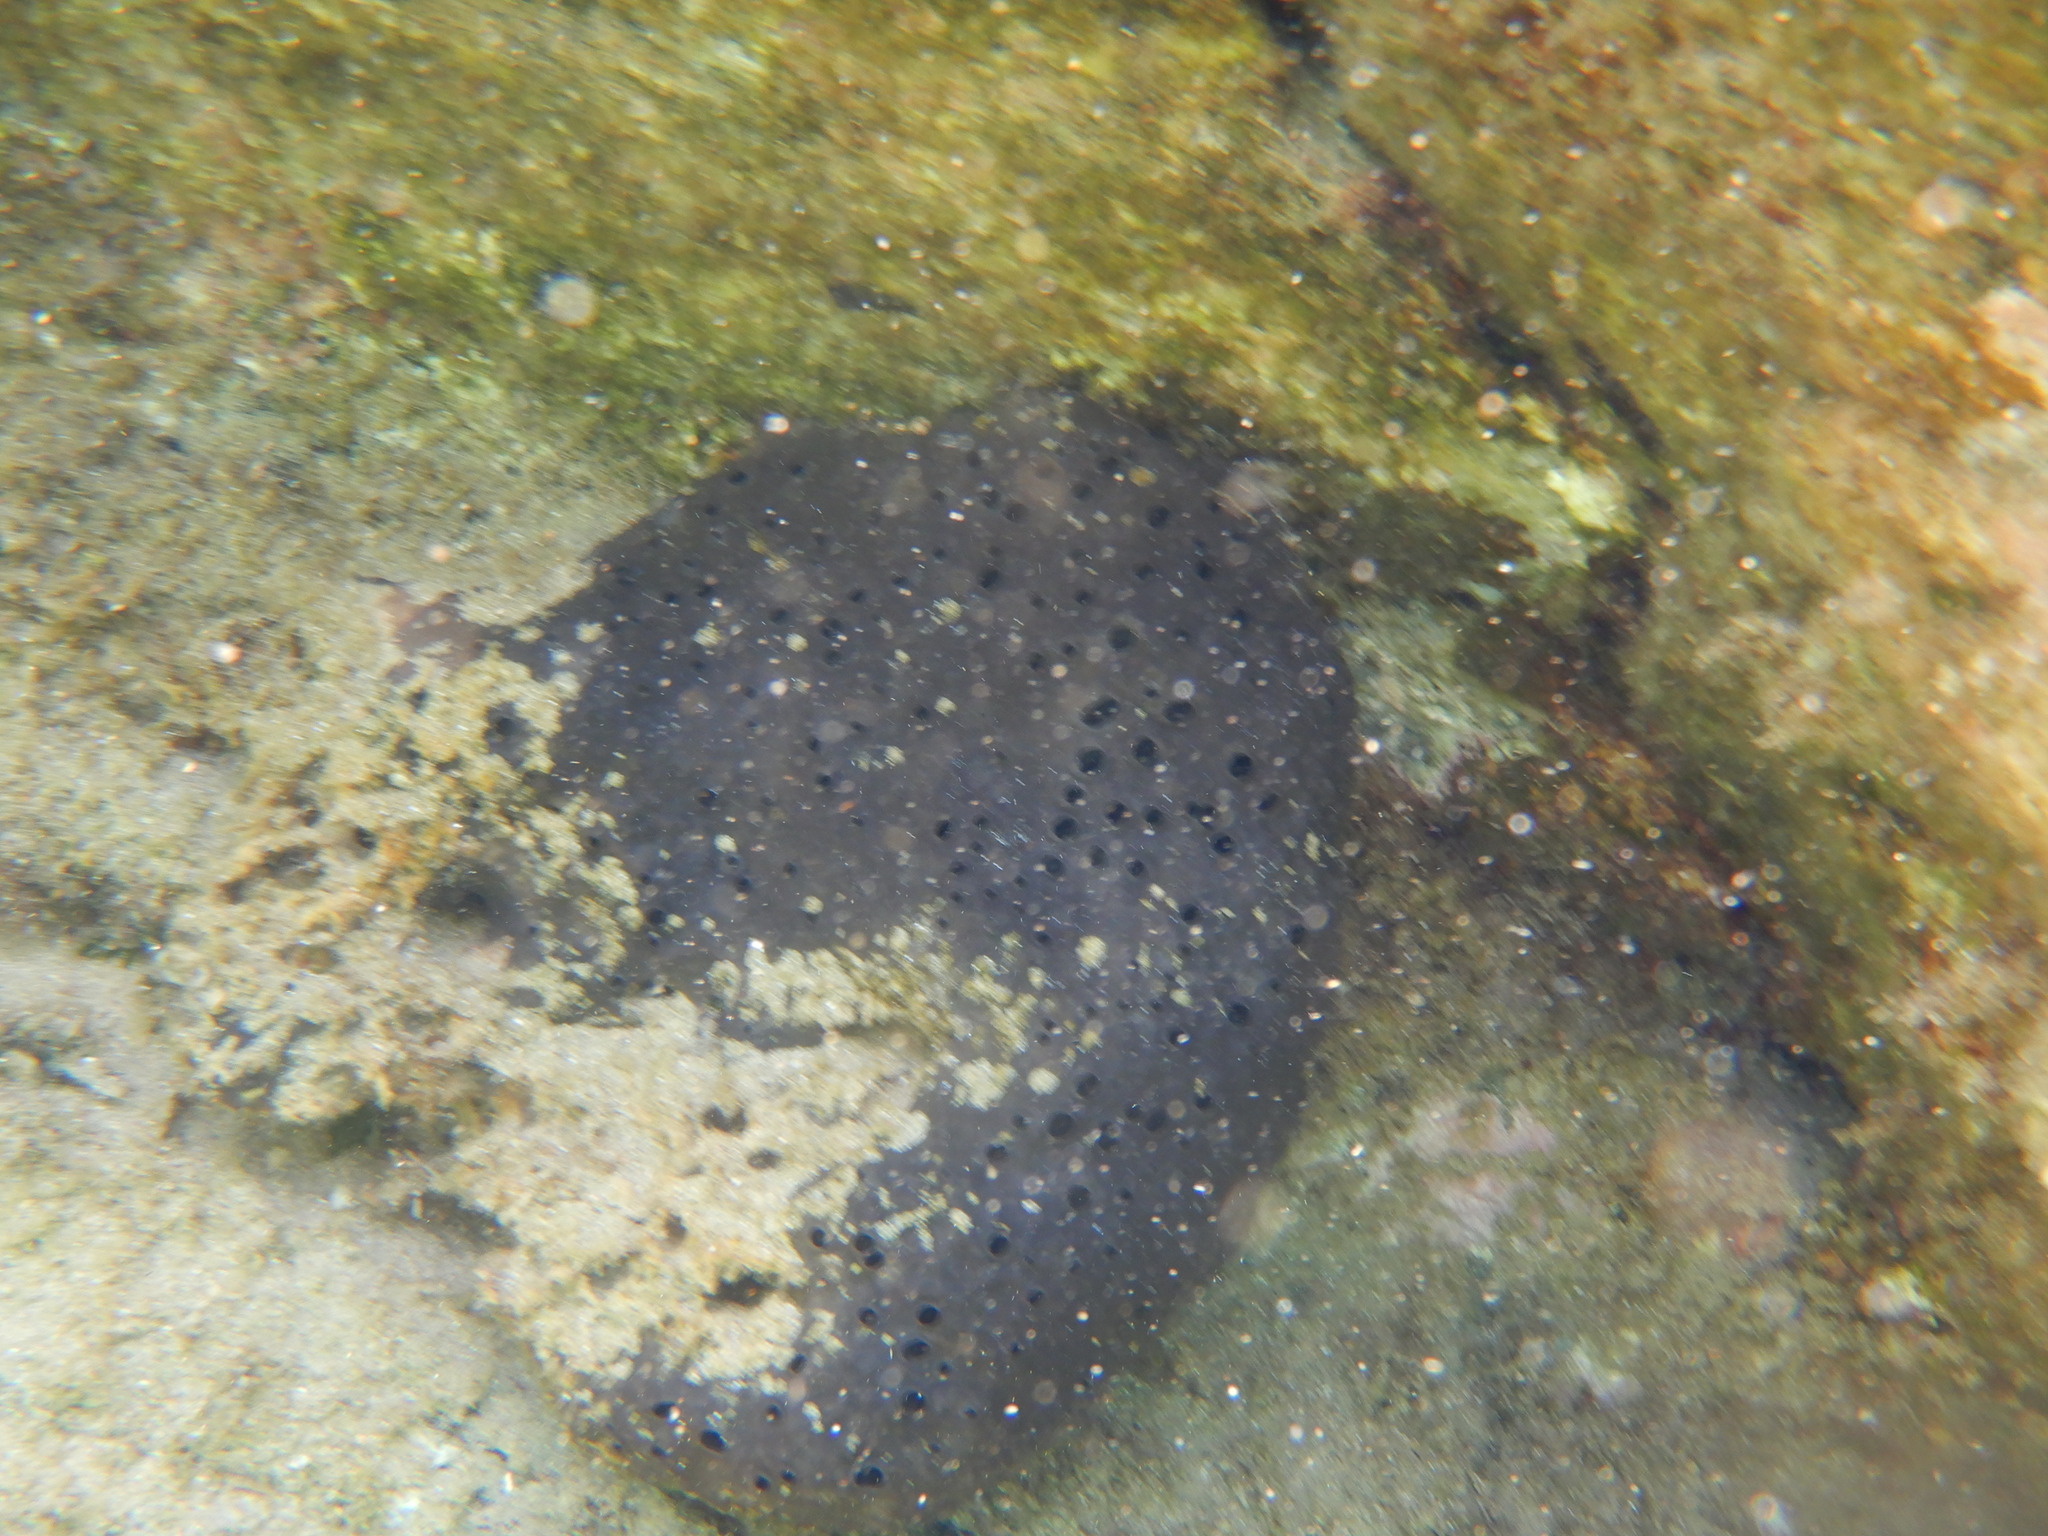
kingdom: Animalia
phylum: Porifera
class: Demospongiae
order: Dictyoceratida
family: Irciniidae
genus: Sarcotragus
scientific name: Sarcotragus spinosulus
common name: Black leather sponge
